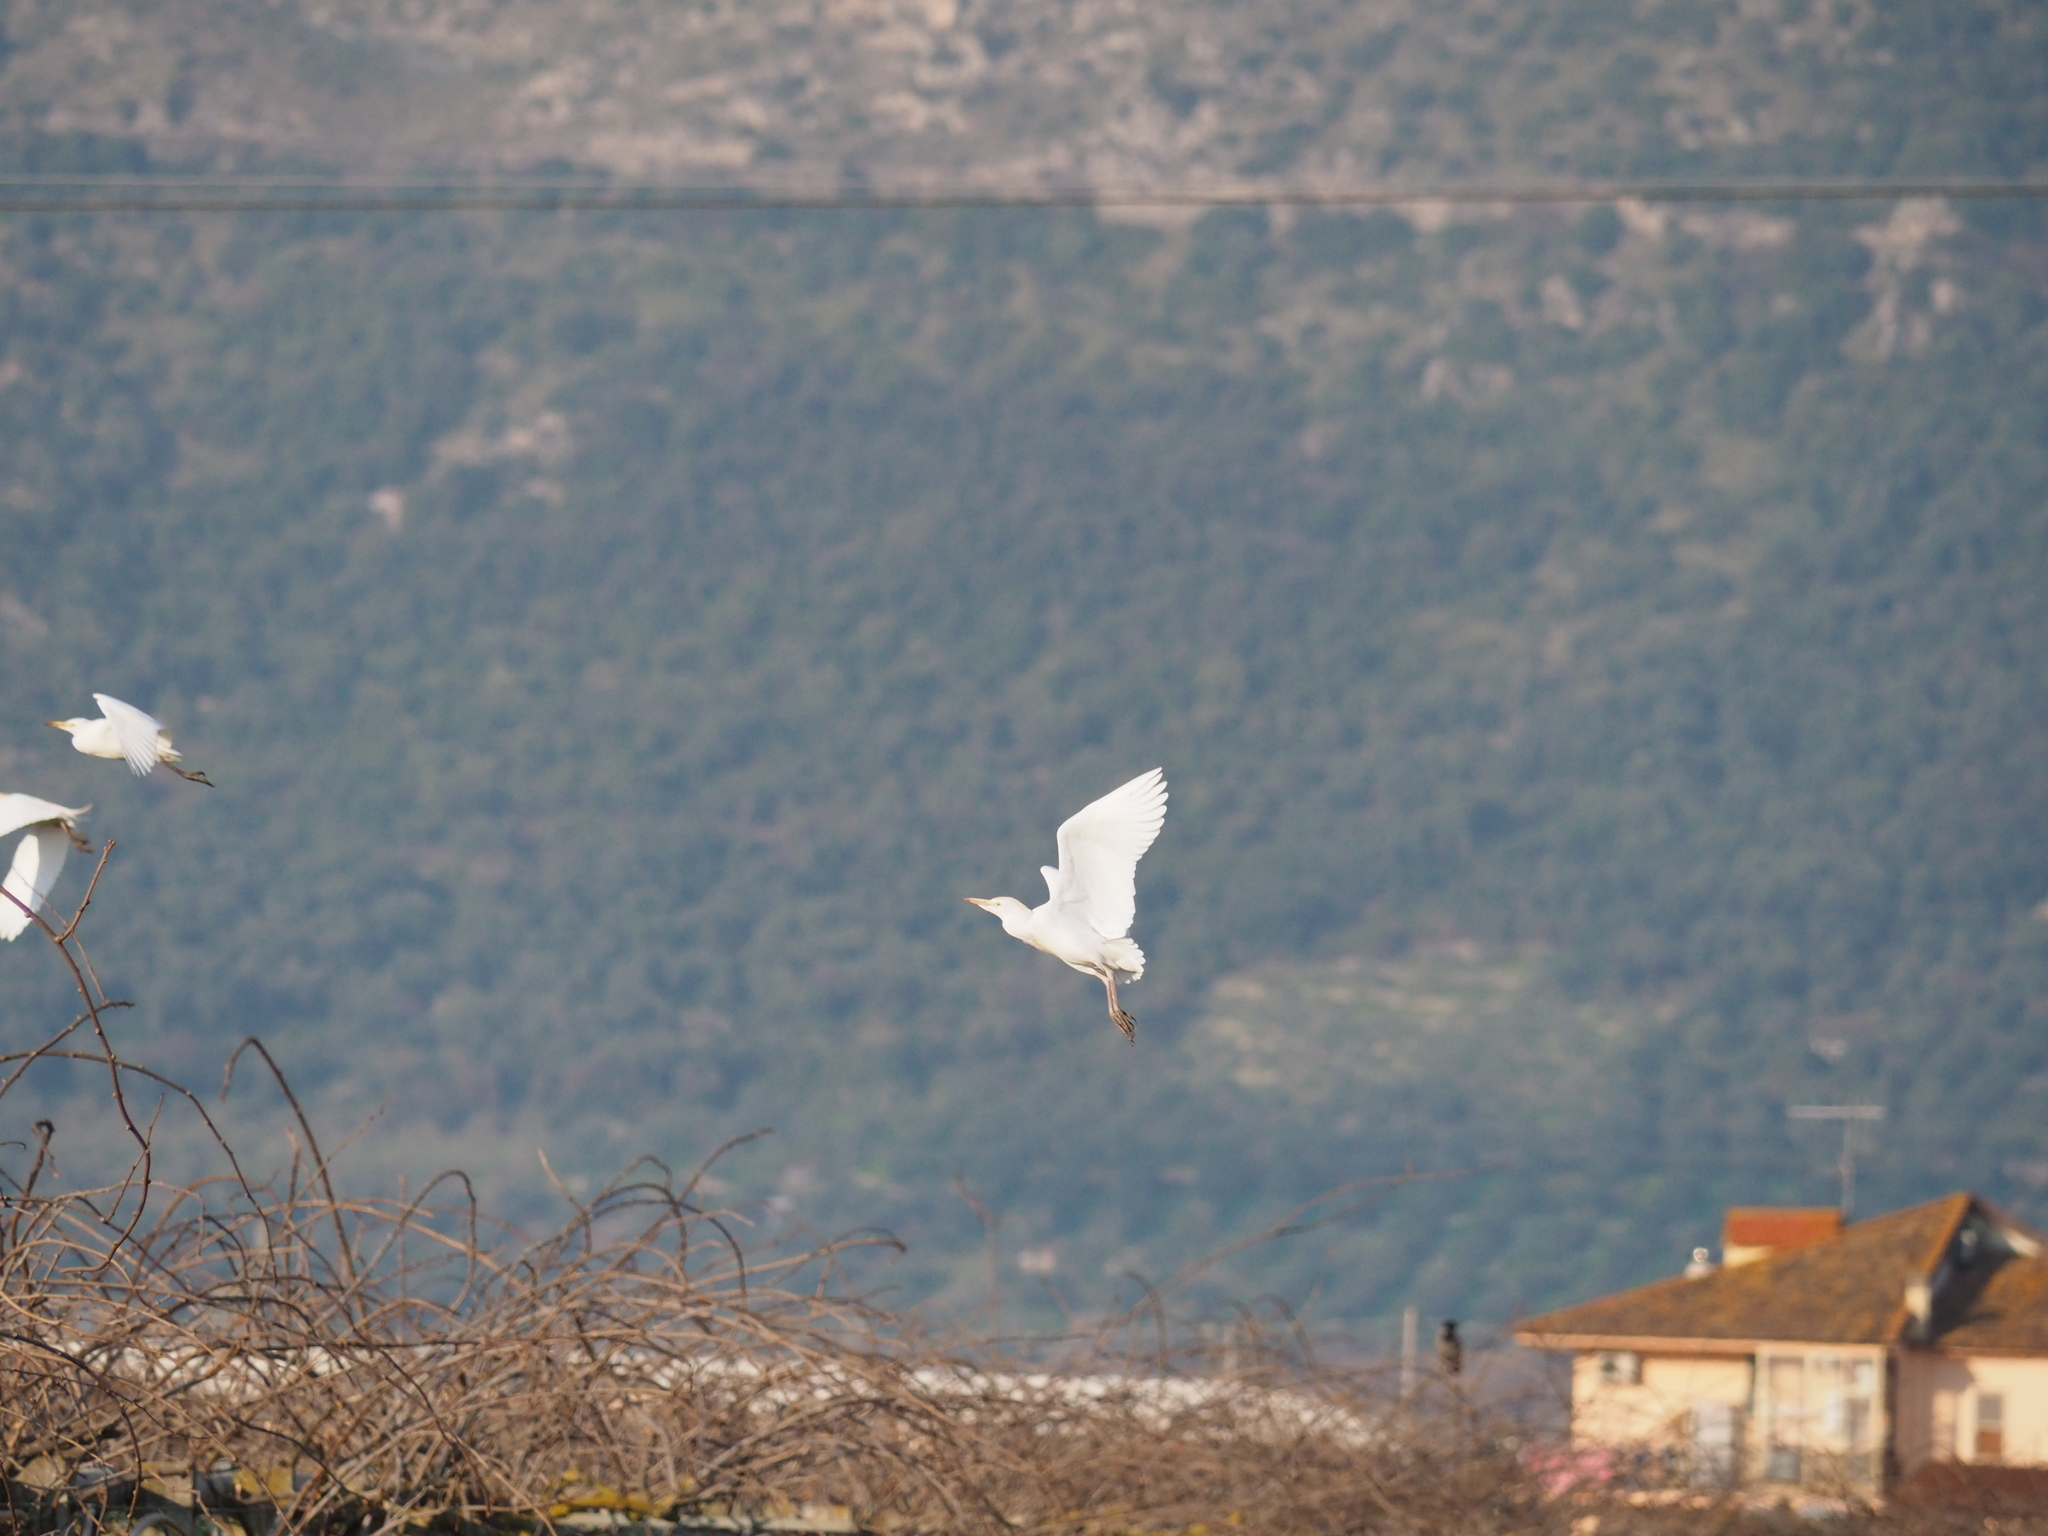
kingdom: Animalia
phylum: Chordata
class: Aves
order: Pelecaniformes
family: Ardeidae
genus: Bubulcus
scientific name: Bubulcus ibis
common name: Cattle egret
